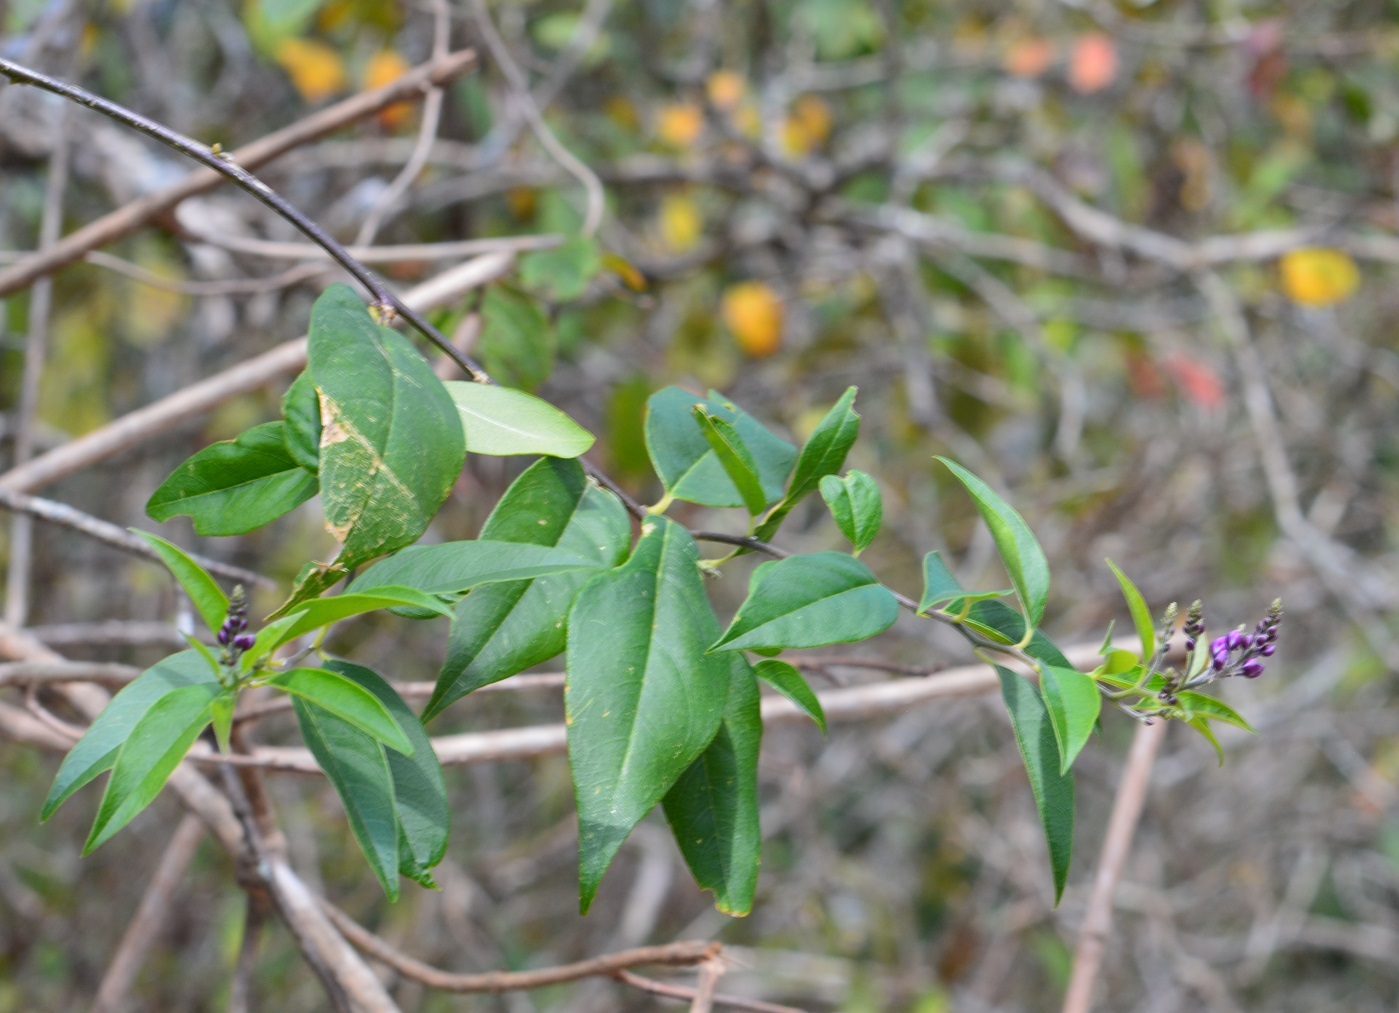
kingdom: Plantae
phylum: Tracheophyta
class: Magnoliopsida
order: Fabales
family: Polygalaceae
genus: Asemeia
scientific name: Asemeia floribunda
